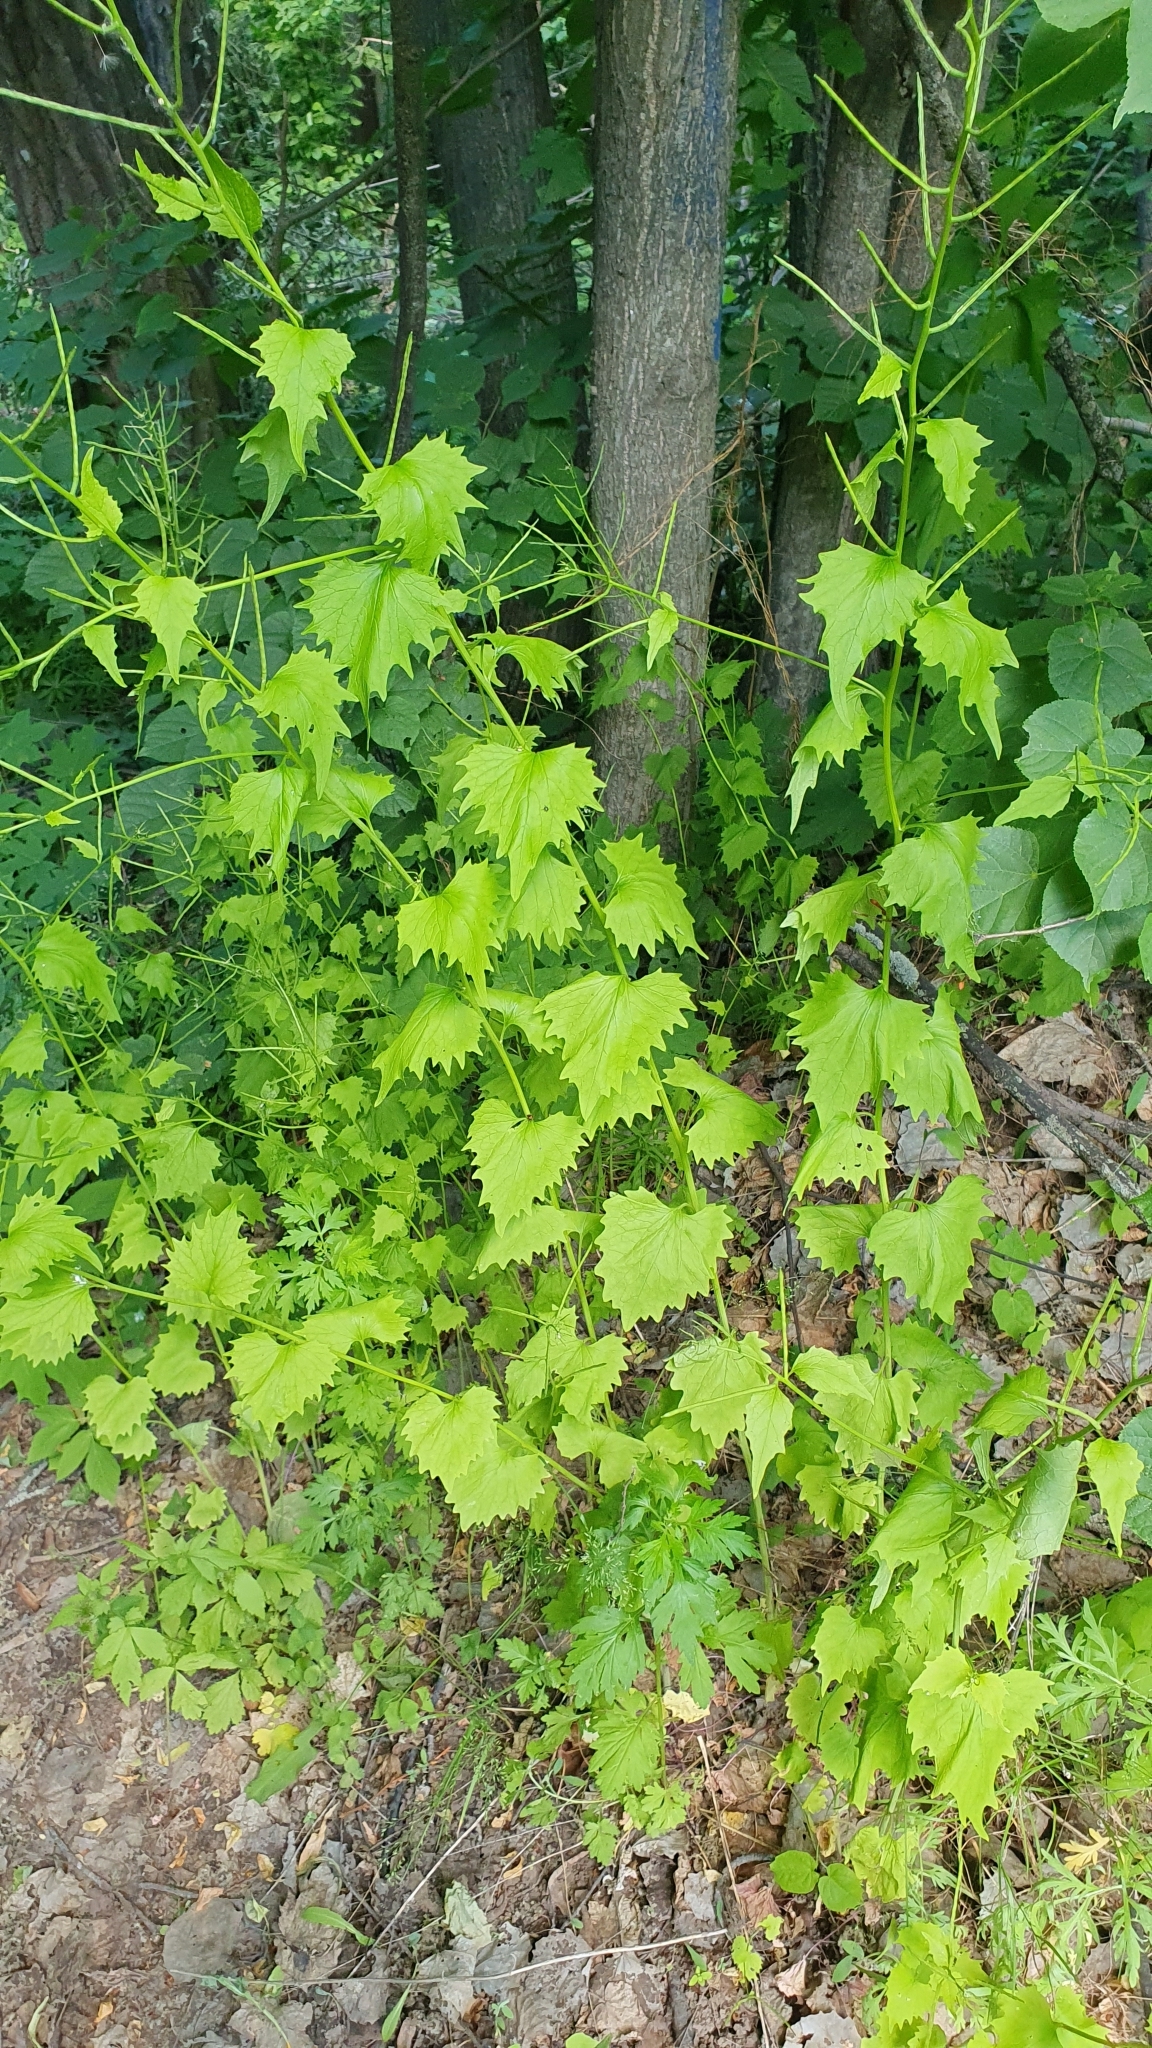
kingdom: Plantae
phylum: Tracheophyta
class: Magnoliopsida
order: Brassicales
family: Brassicaceae
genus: Alliaria
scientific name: Alliaria petiolata
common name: Garlic mustard
